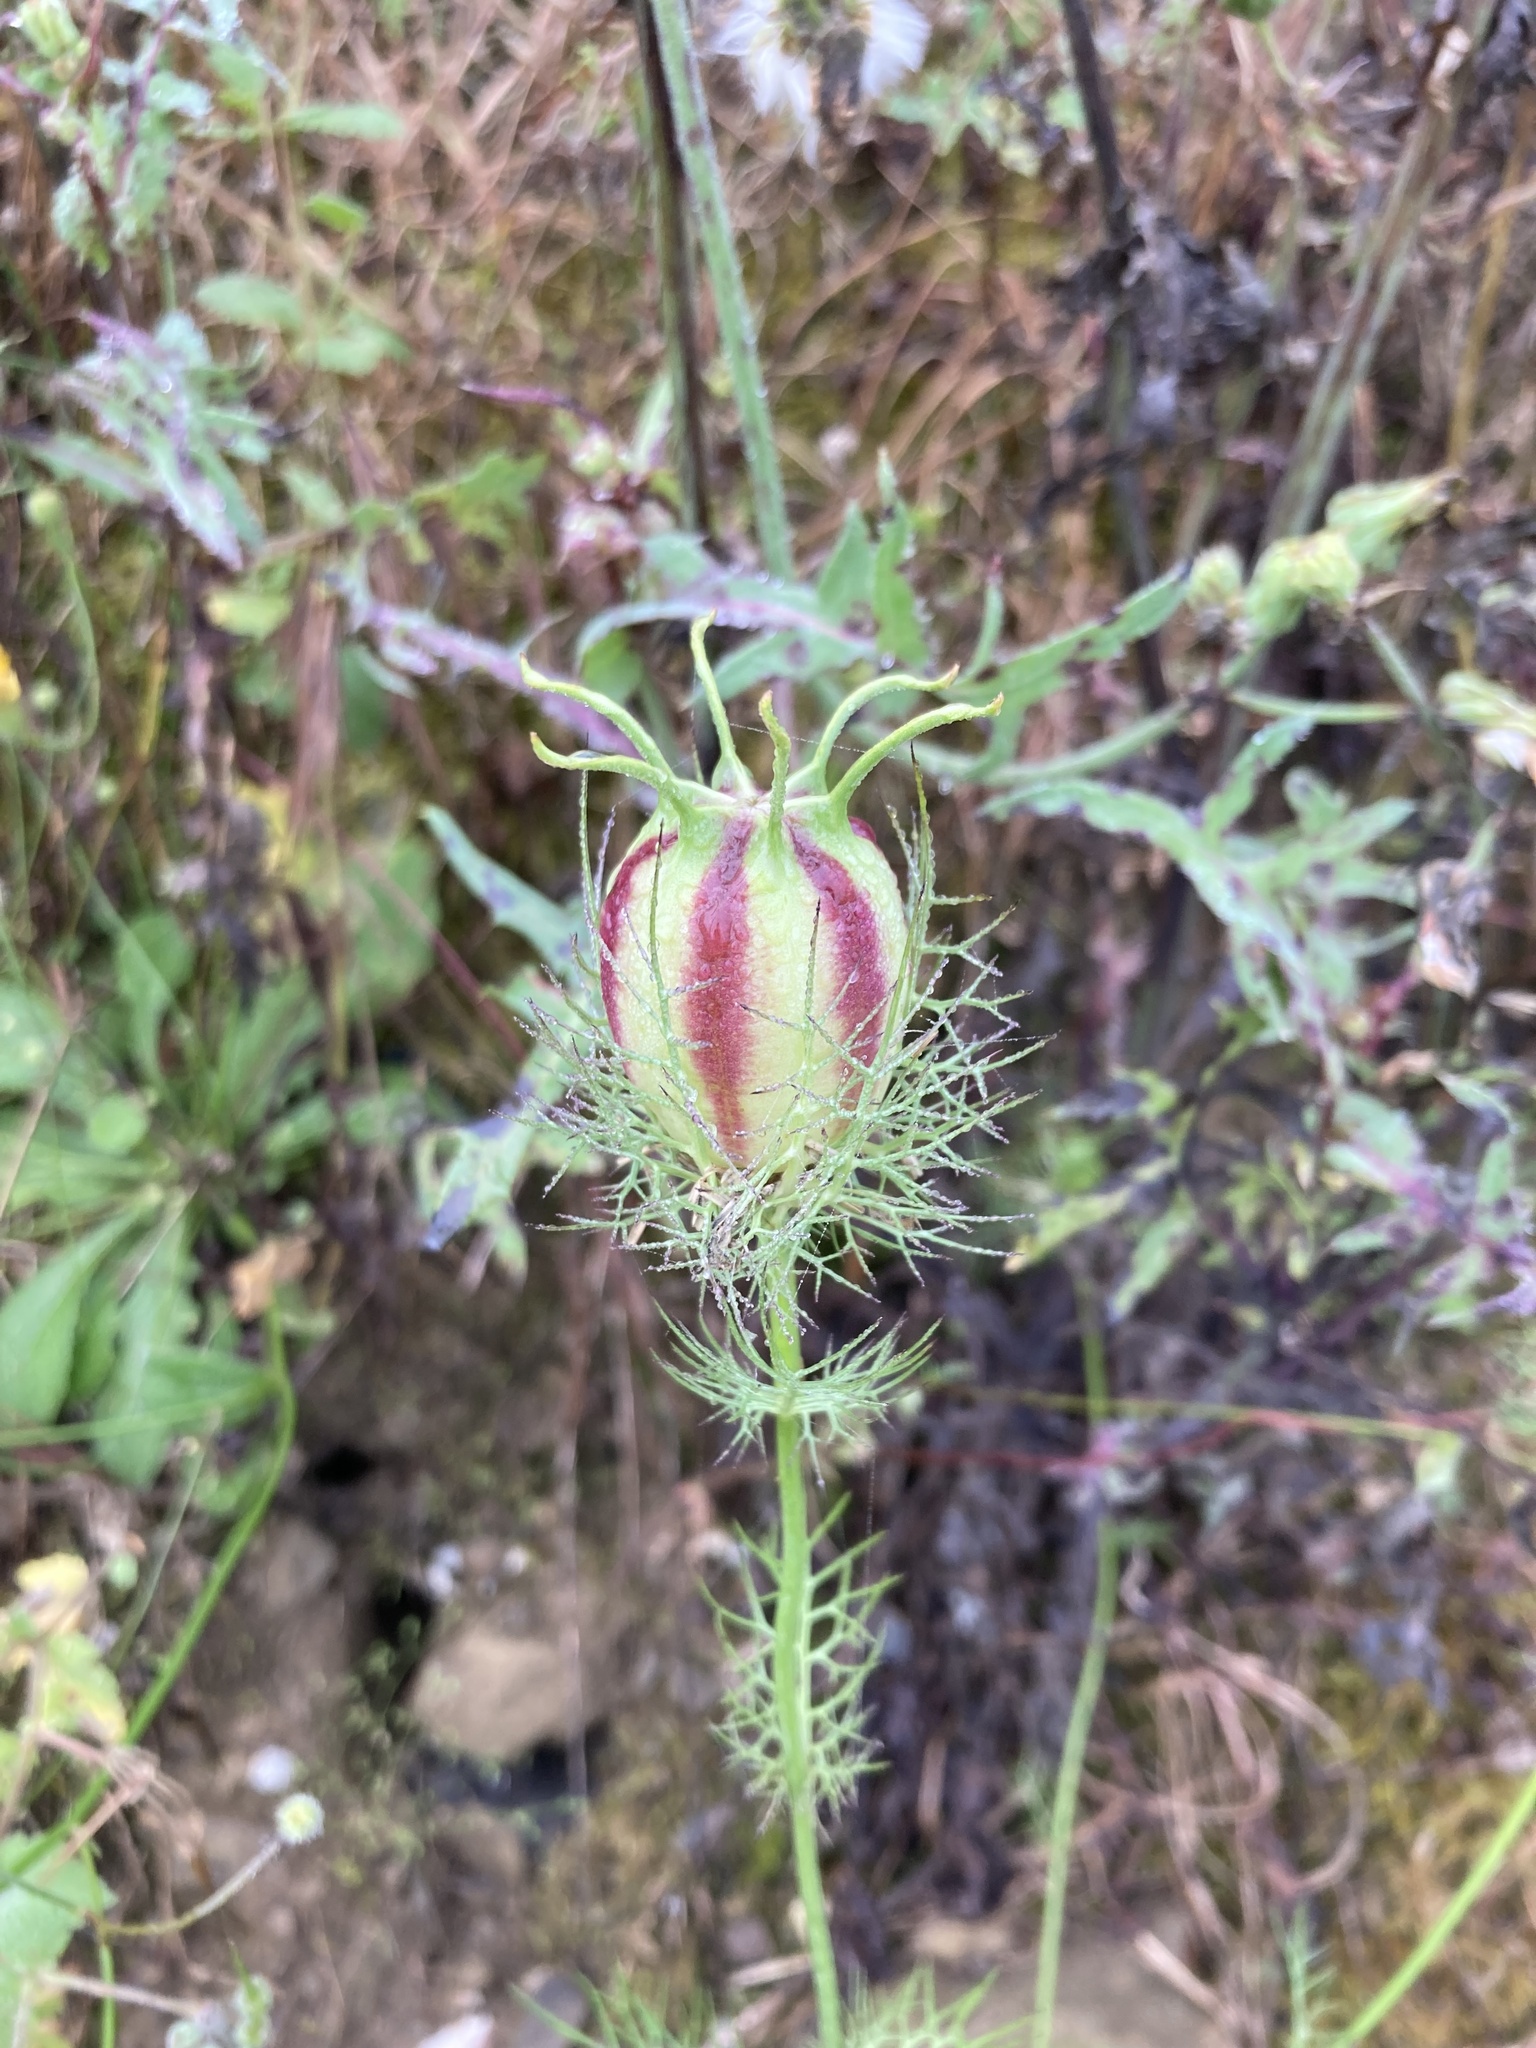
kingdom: Plantae
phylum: Tracheophyta
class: Magnoliopsida
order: Ranunculales
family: Ranunculaceae
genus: Nigella
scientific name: Nigella damascena
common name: Love-in-a-mist
